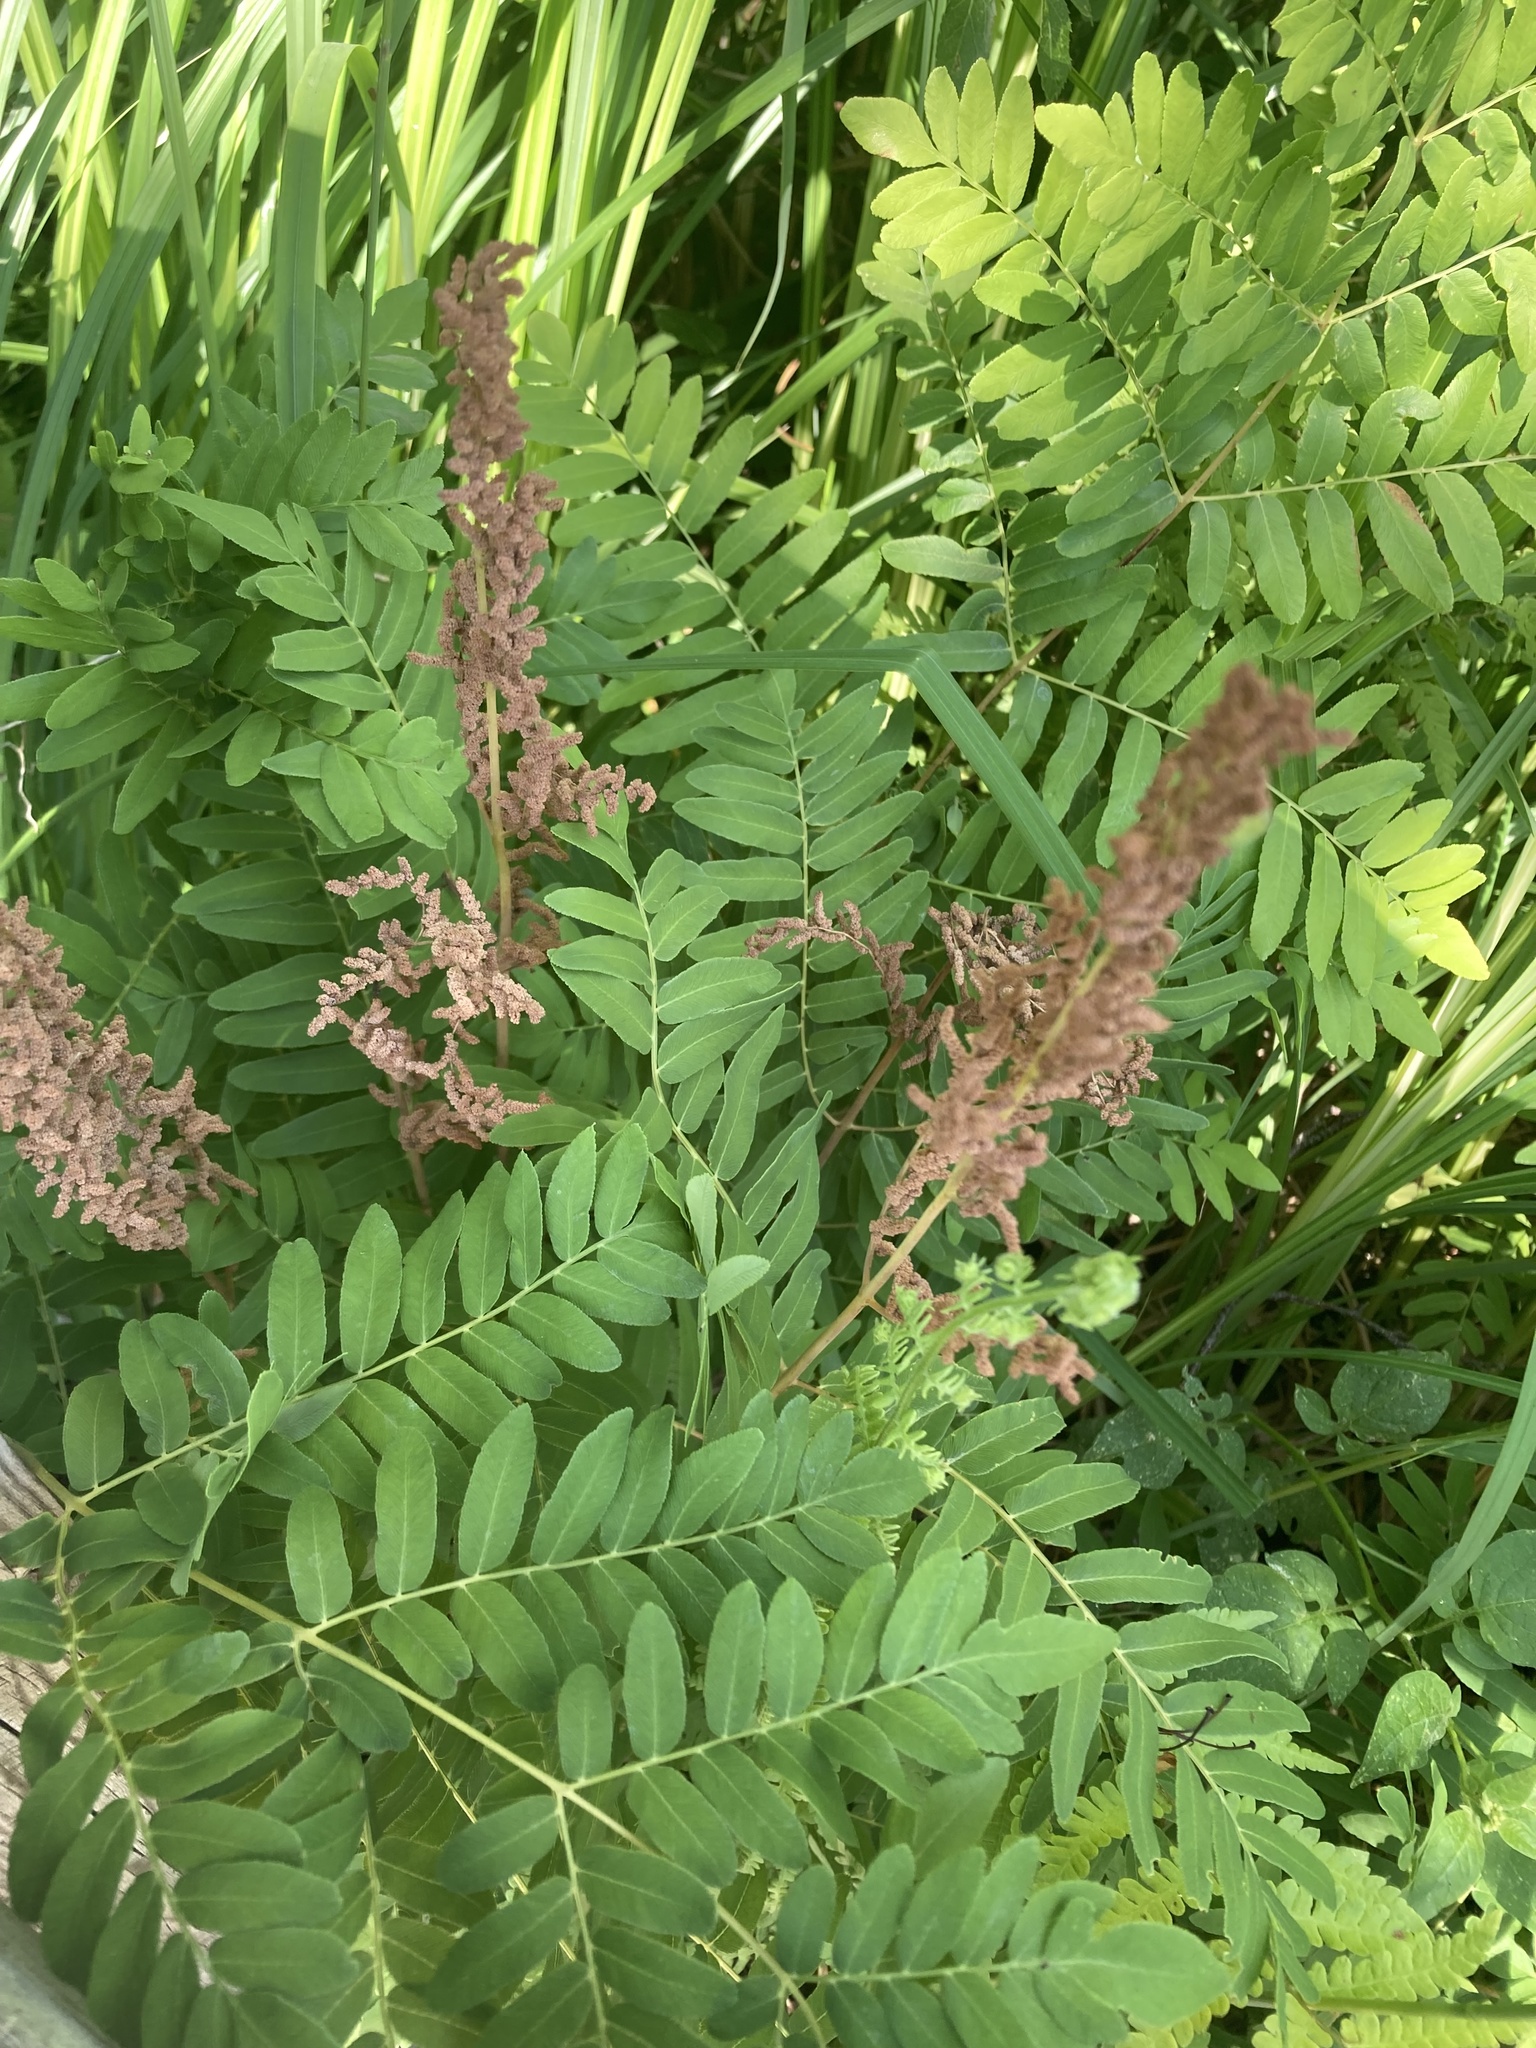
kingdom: Plantae
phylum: Tracheophyta
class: Polypodiopsida
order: Osmundales
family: Osmundaceae
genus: Osmunda
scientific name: Osmunda spectabilis
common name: American royal fern
